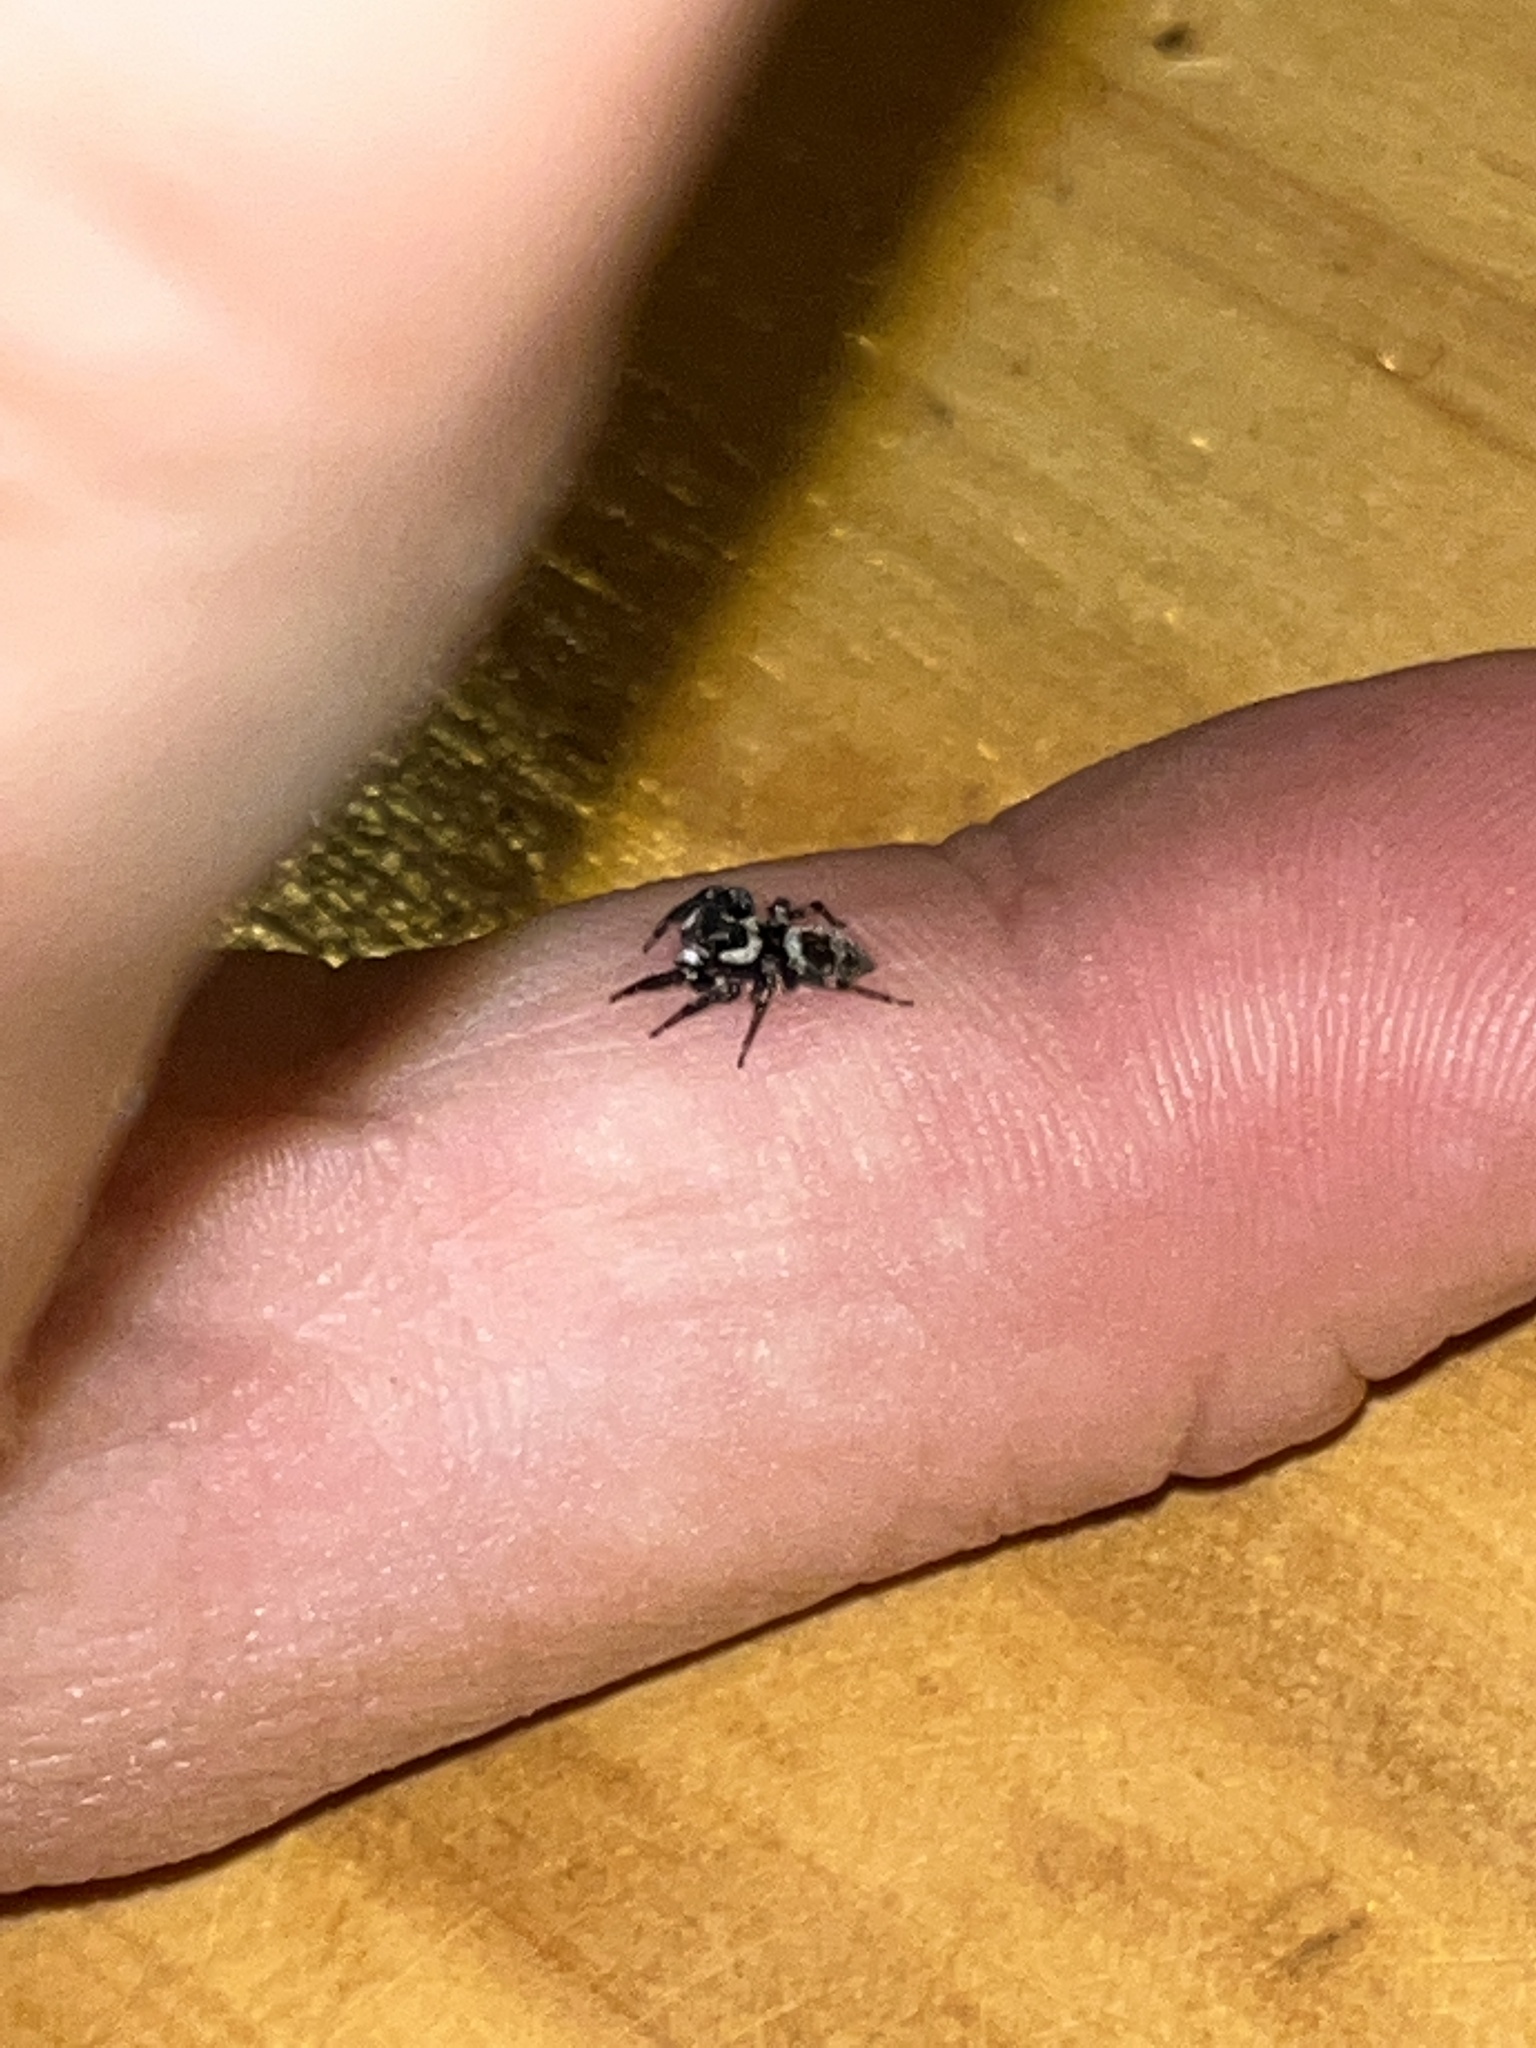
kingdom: Animalia
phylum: Arthropoda
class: Arachnida
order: Araneae
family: Salticidae
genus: Hasarius
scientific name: Hasarius adansoni
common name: Jumping spider
